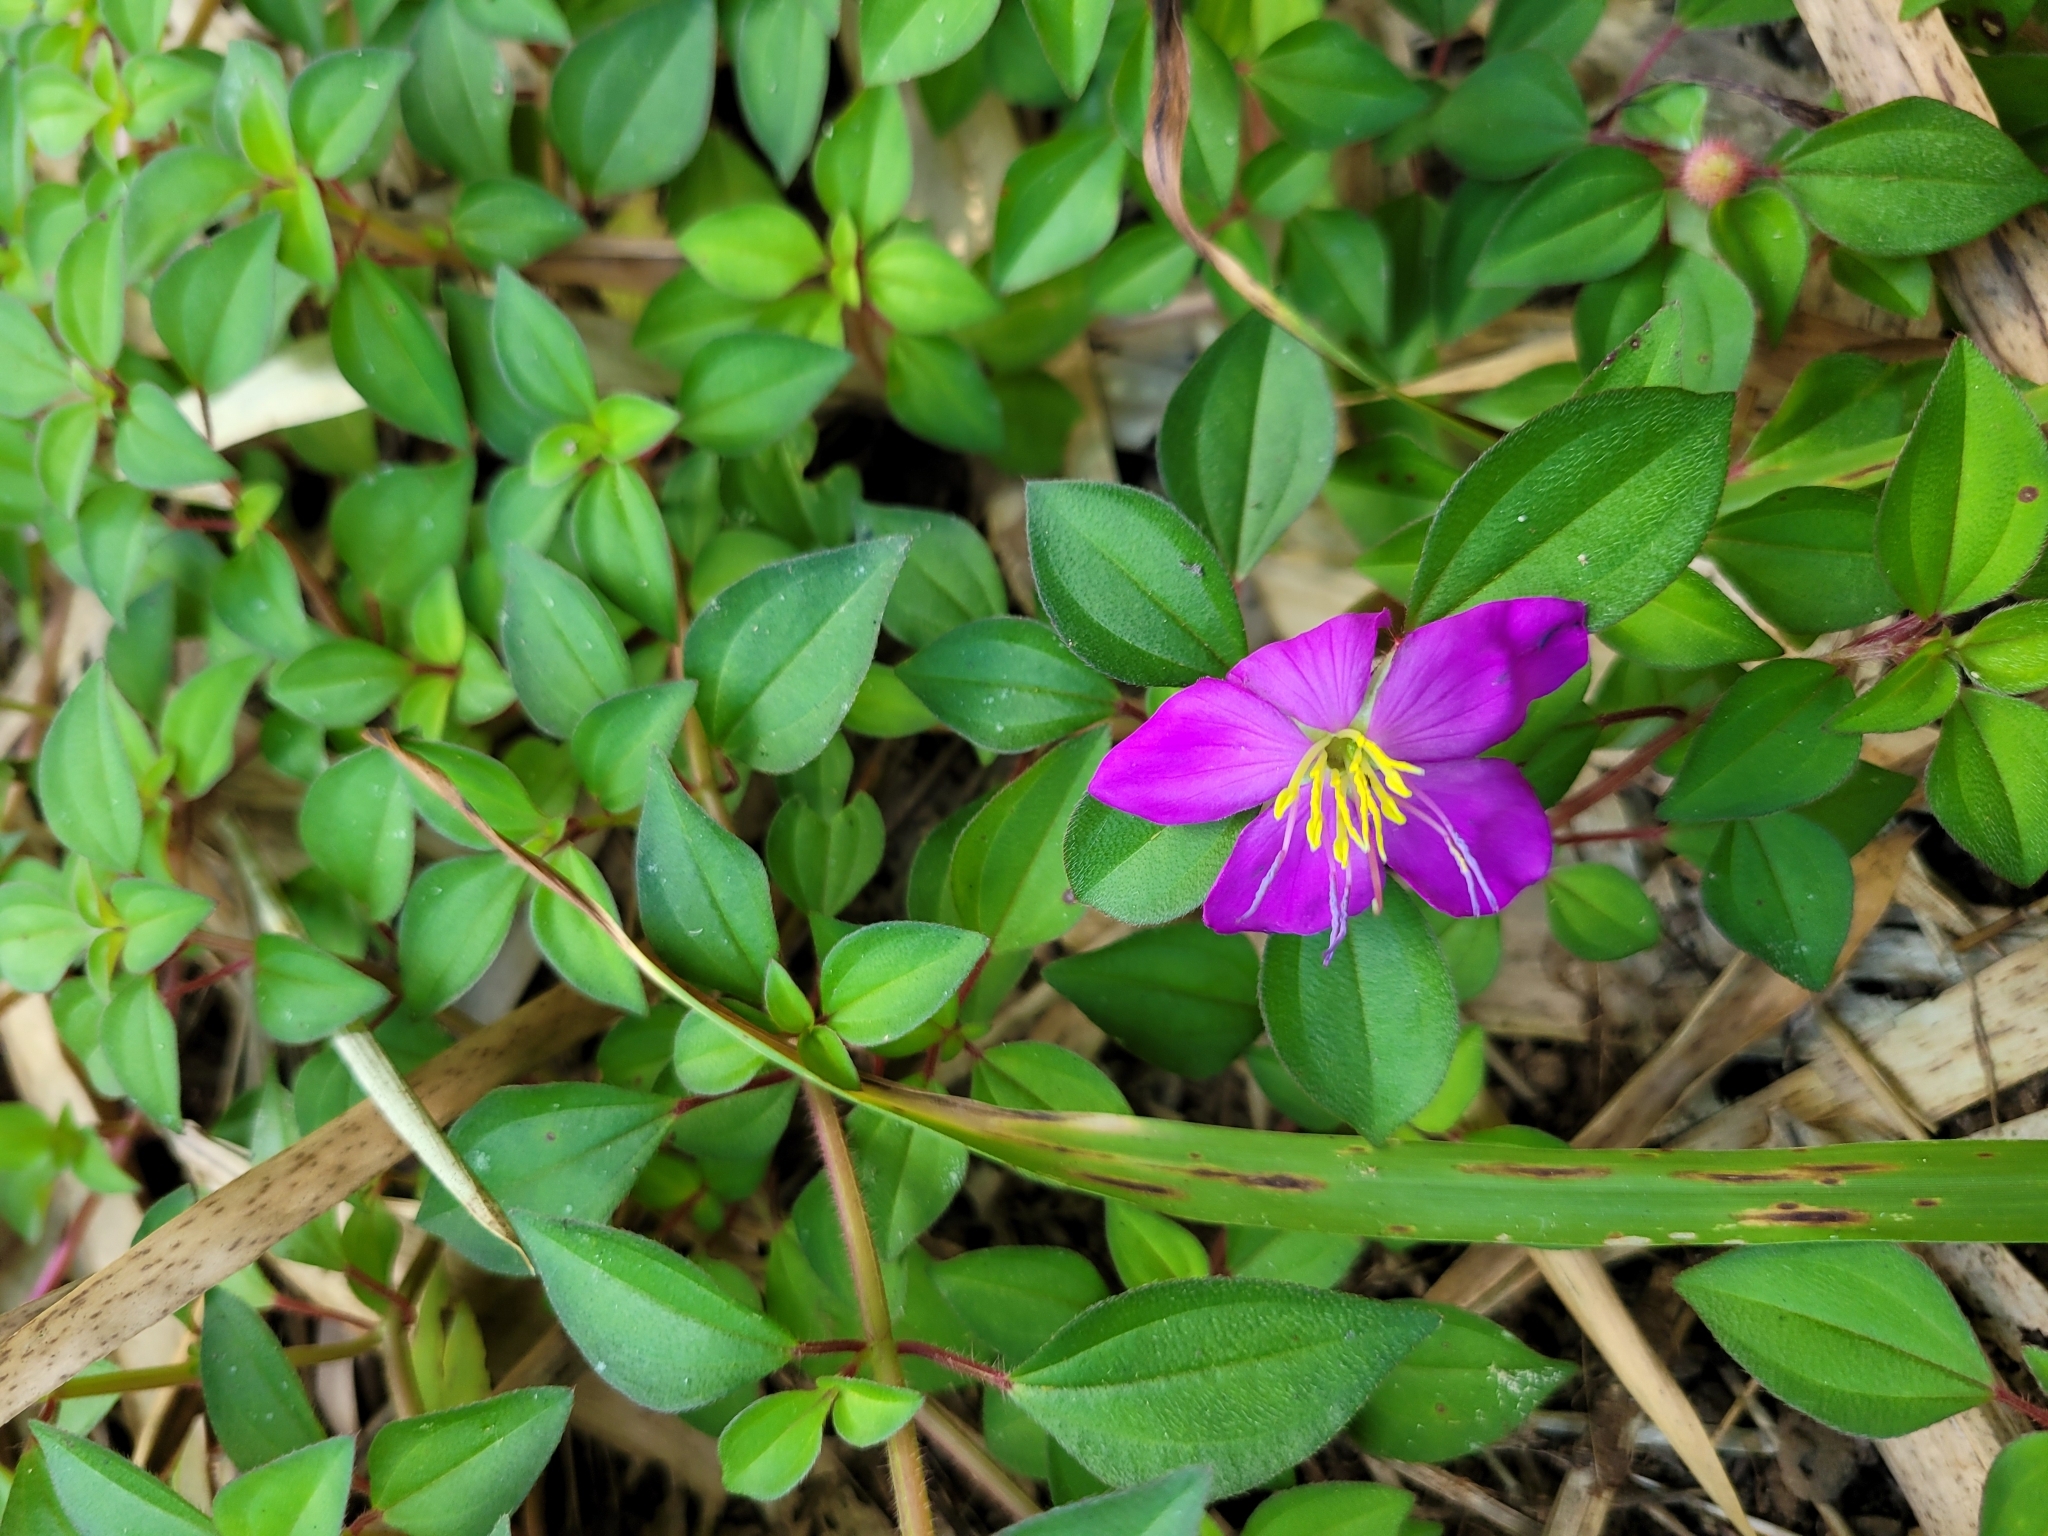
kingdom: Plantae
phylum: Tracheophyta
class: Magnoliopsida
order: Myrtales
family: Melastomataceae
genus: Heterotis
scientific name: Heterotis rotundifolia
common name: Pinklady
